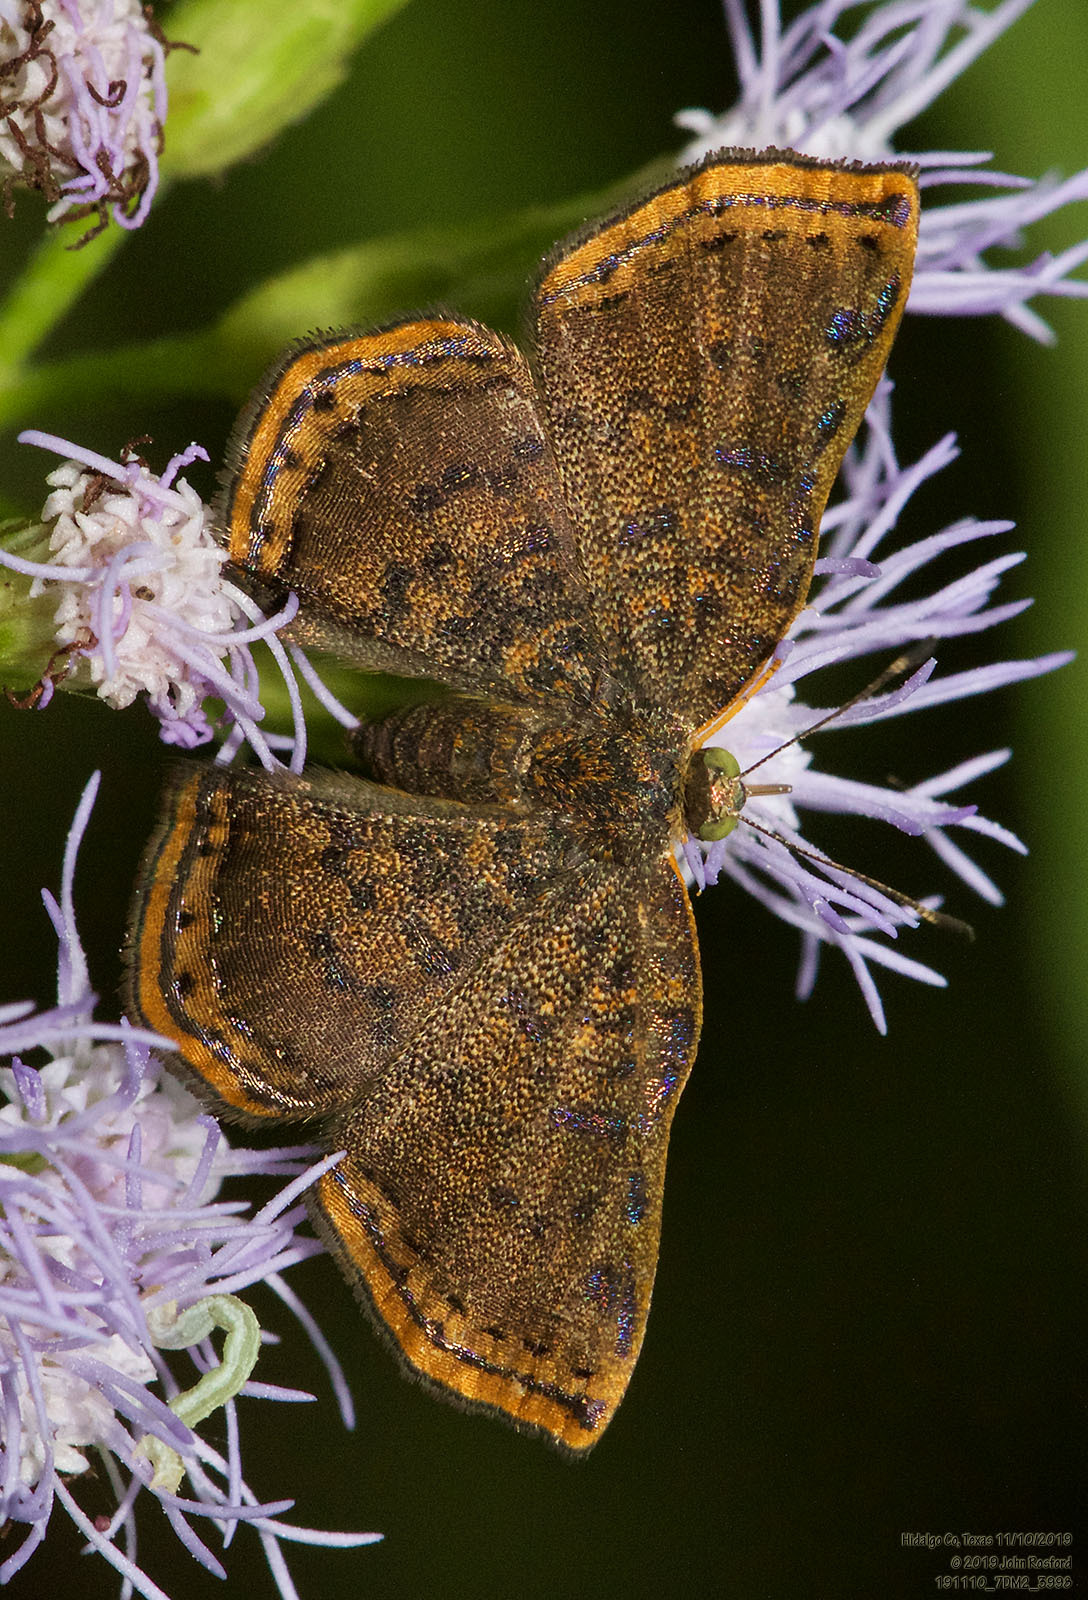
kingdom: Animalia
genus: Caria
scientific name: Caria ino
